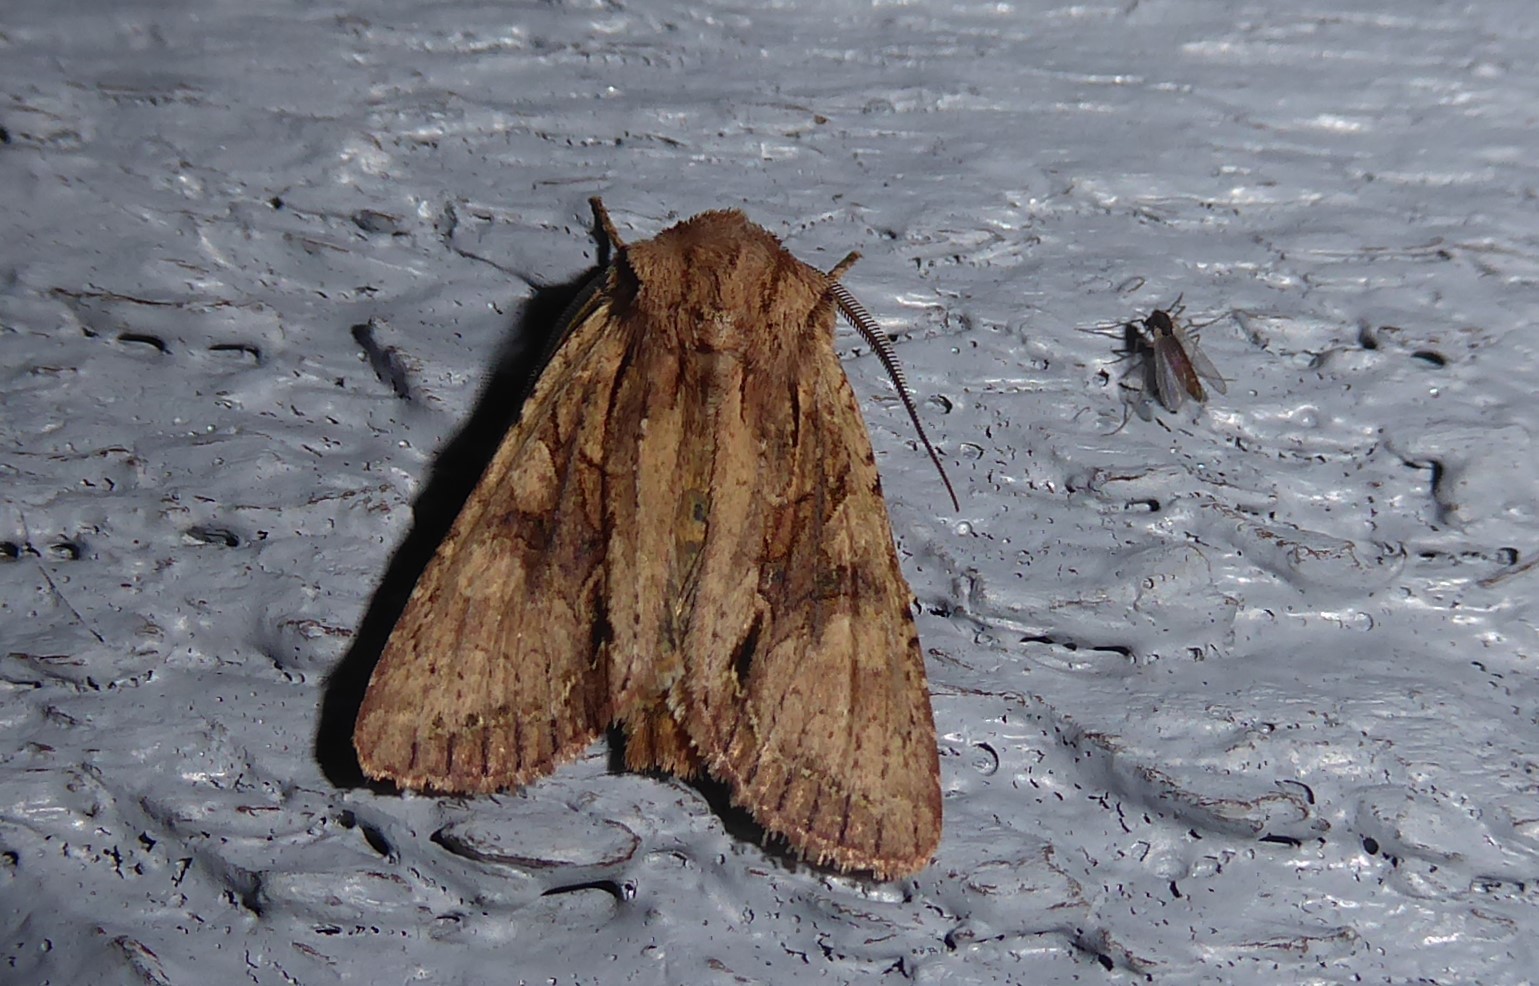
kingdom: Animalia
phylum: Arthropoda
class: Insecta
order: Lepidoptera
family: Noctuidae
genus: Ichneutica
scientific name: Ichneutica
